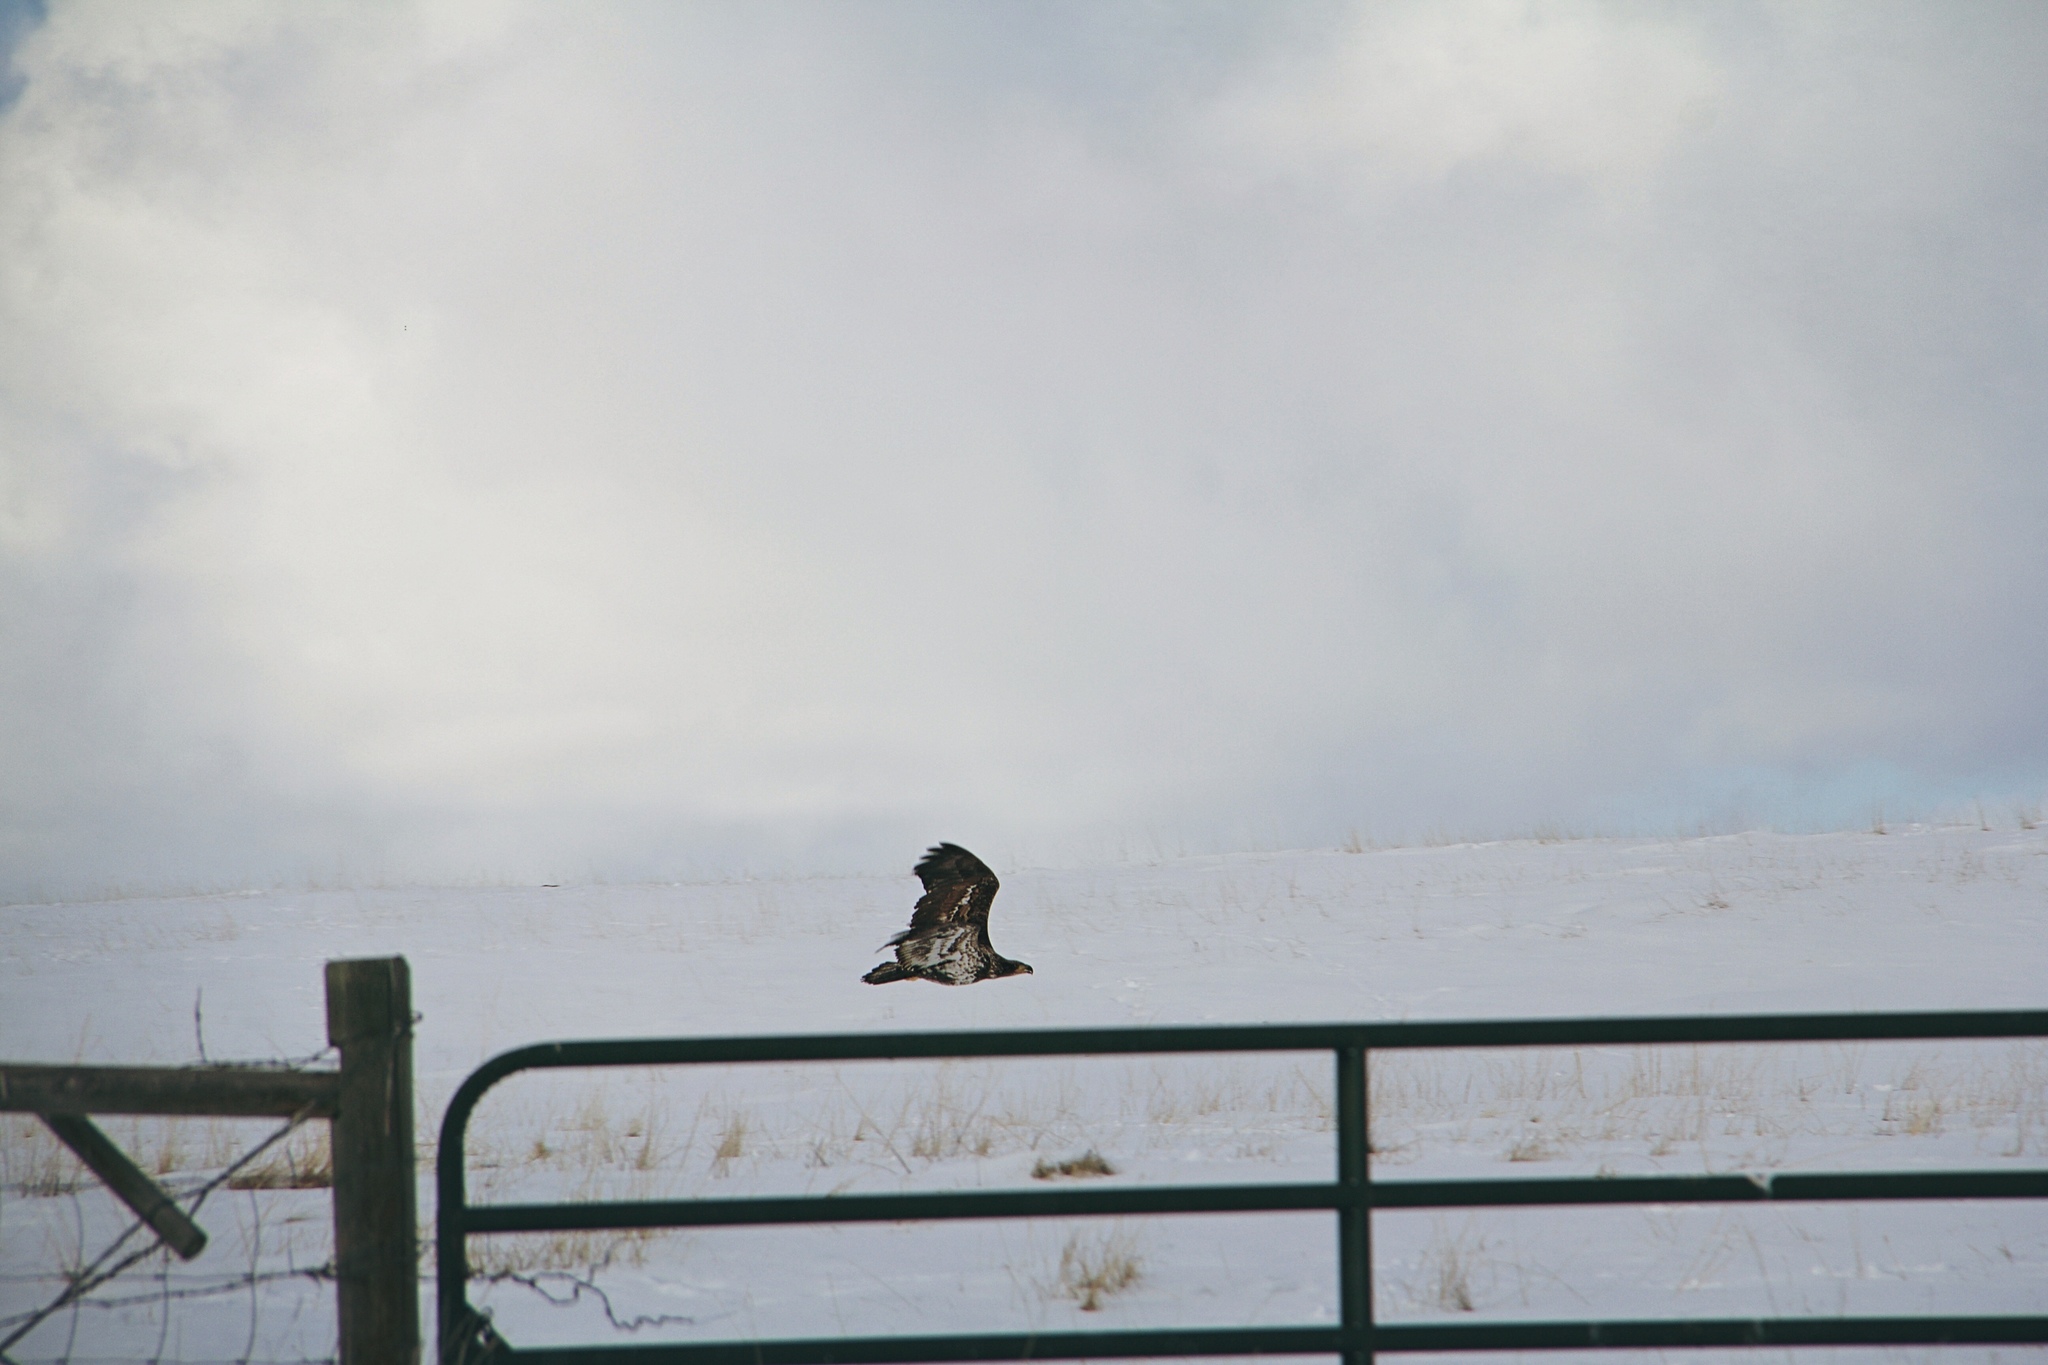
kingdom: Animalia
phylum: Chordata
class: Aves
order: Accipitriformes
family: Accipitridae
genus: Haliaeetus
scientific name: Haliaeetus leucocephalus
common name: Bald eagle
